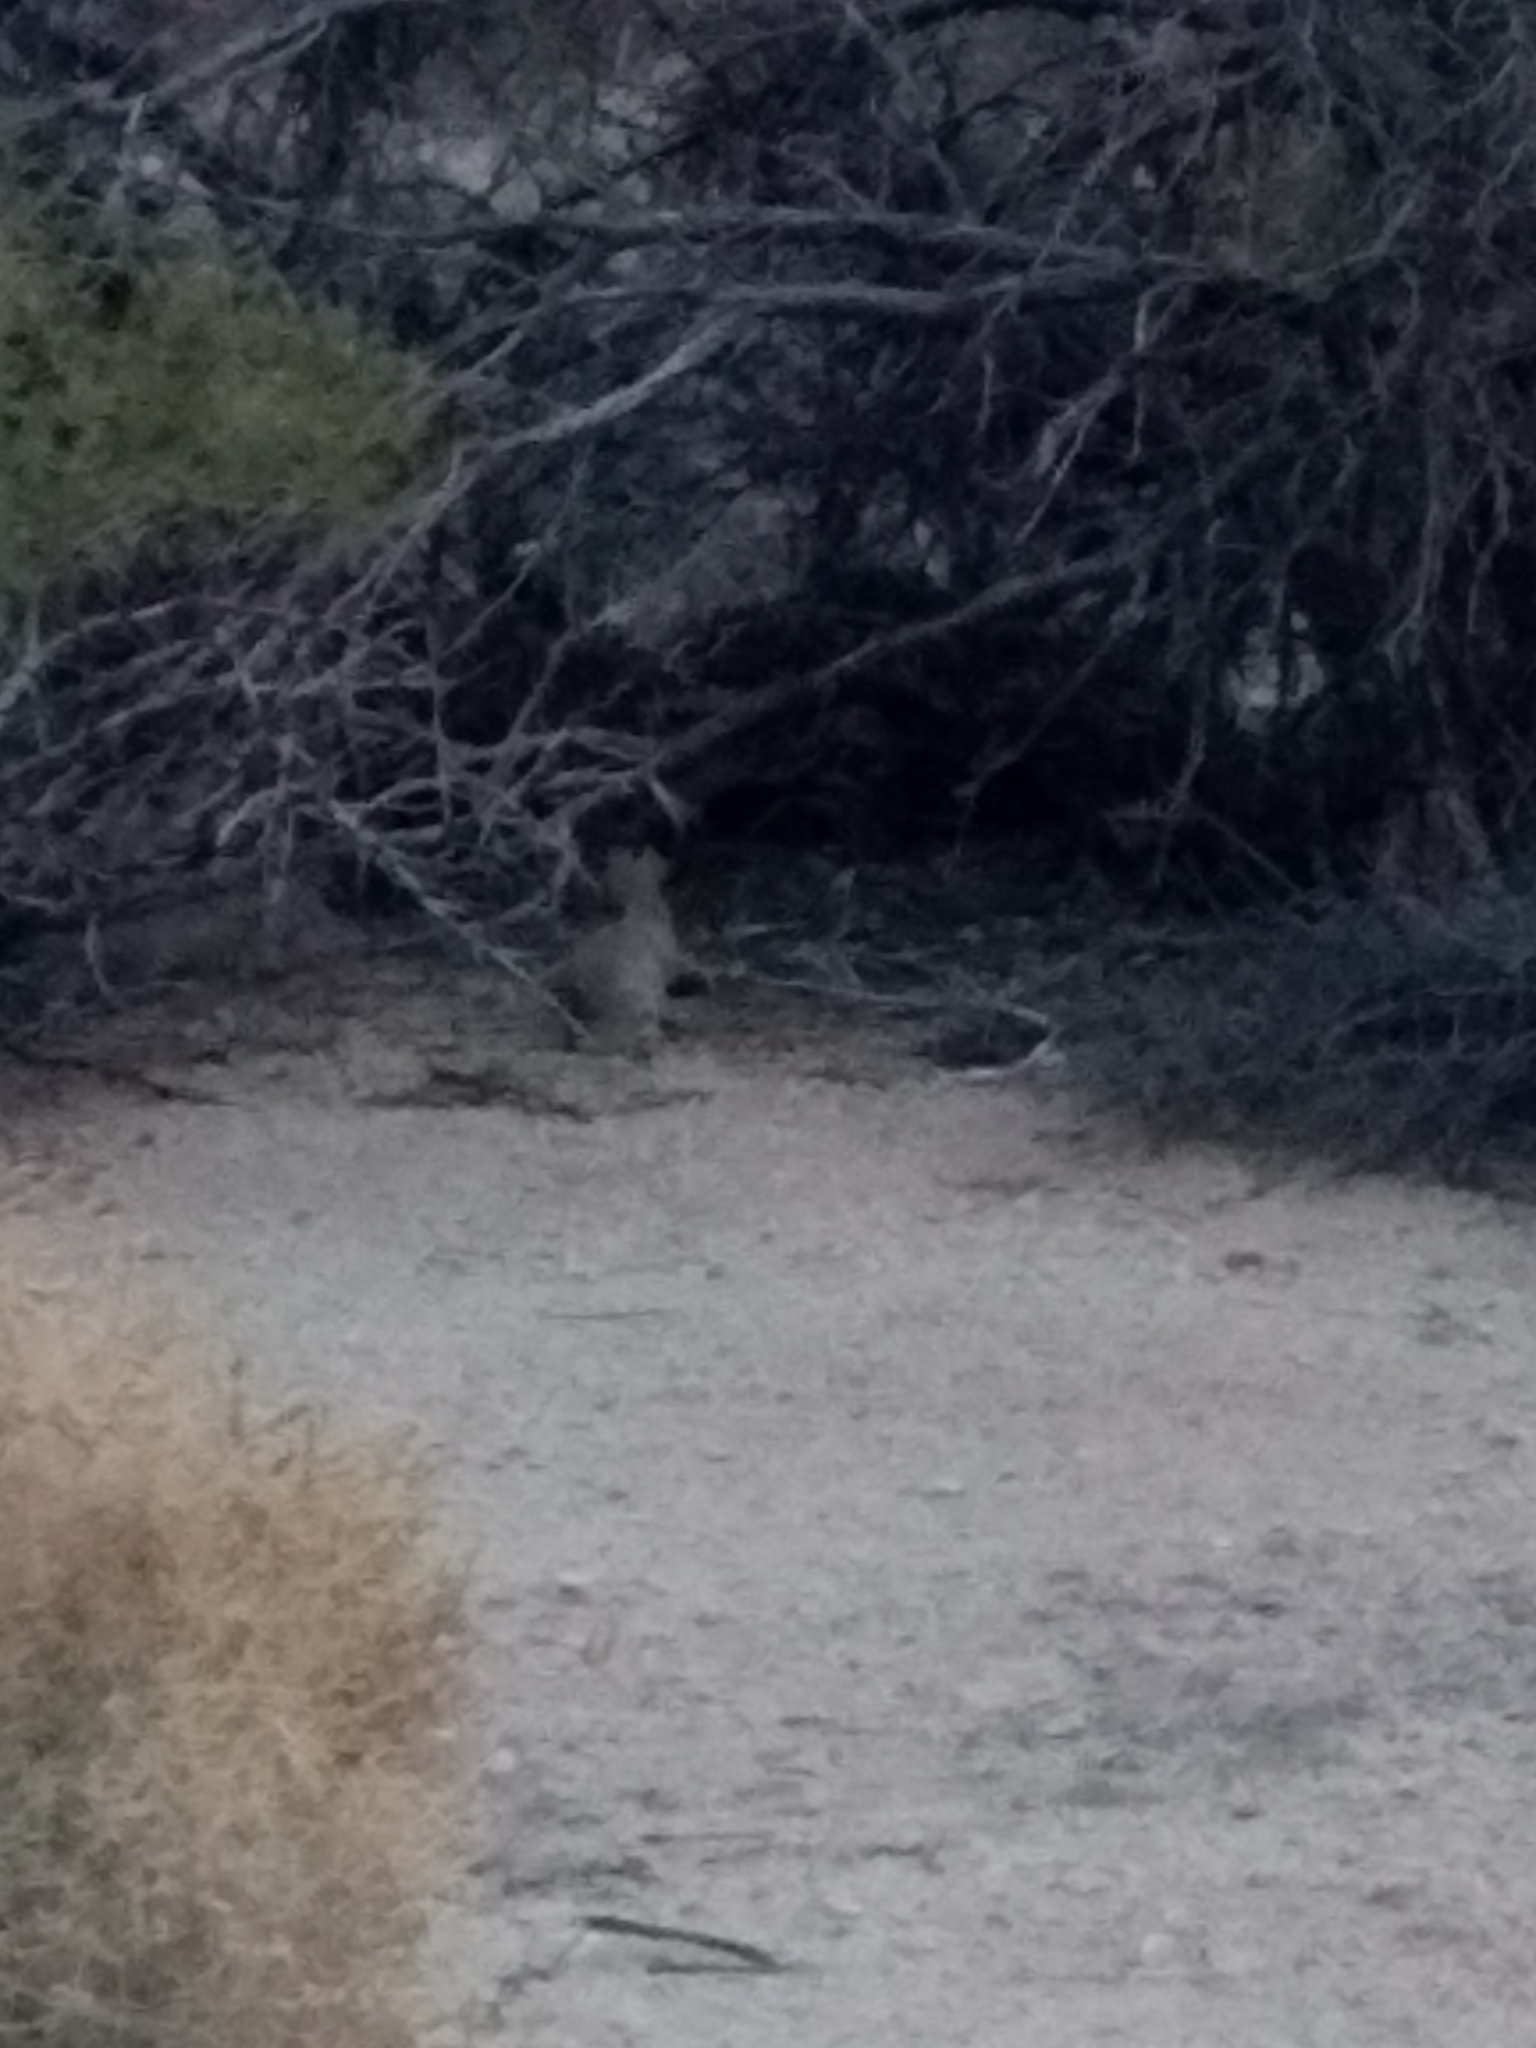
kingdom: Animalia
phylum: Chordata
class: Mammalia
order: Lagomorpha
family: Leporidae
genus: Sylvilagus
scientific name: Sylvilagus audubonii
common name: Desert cottontail
